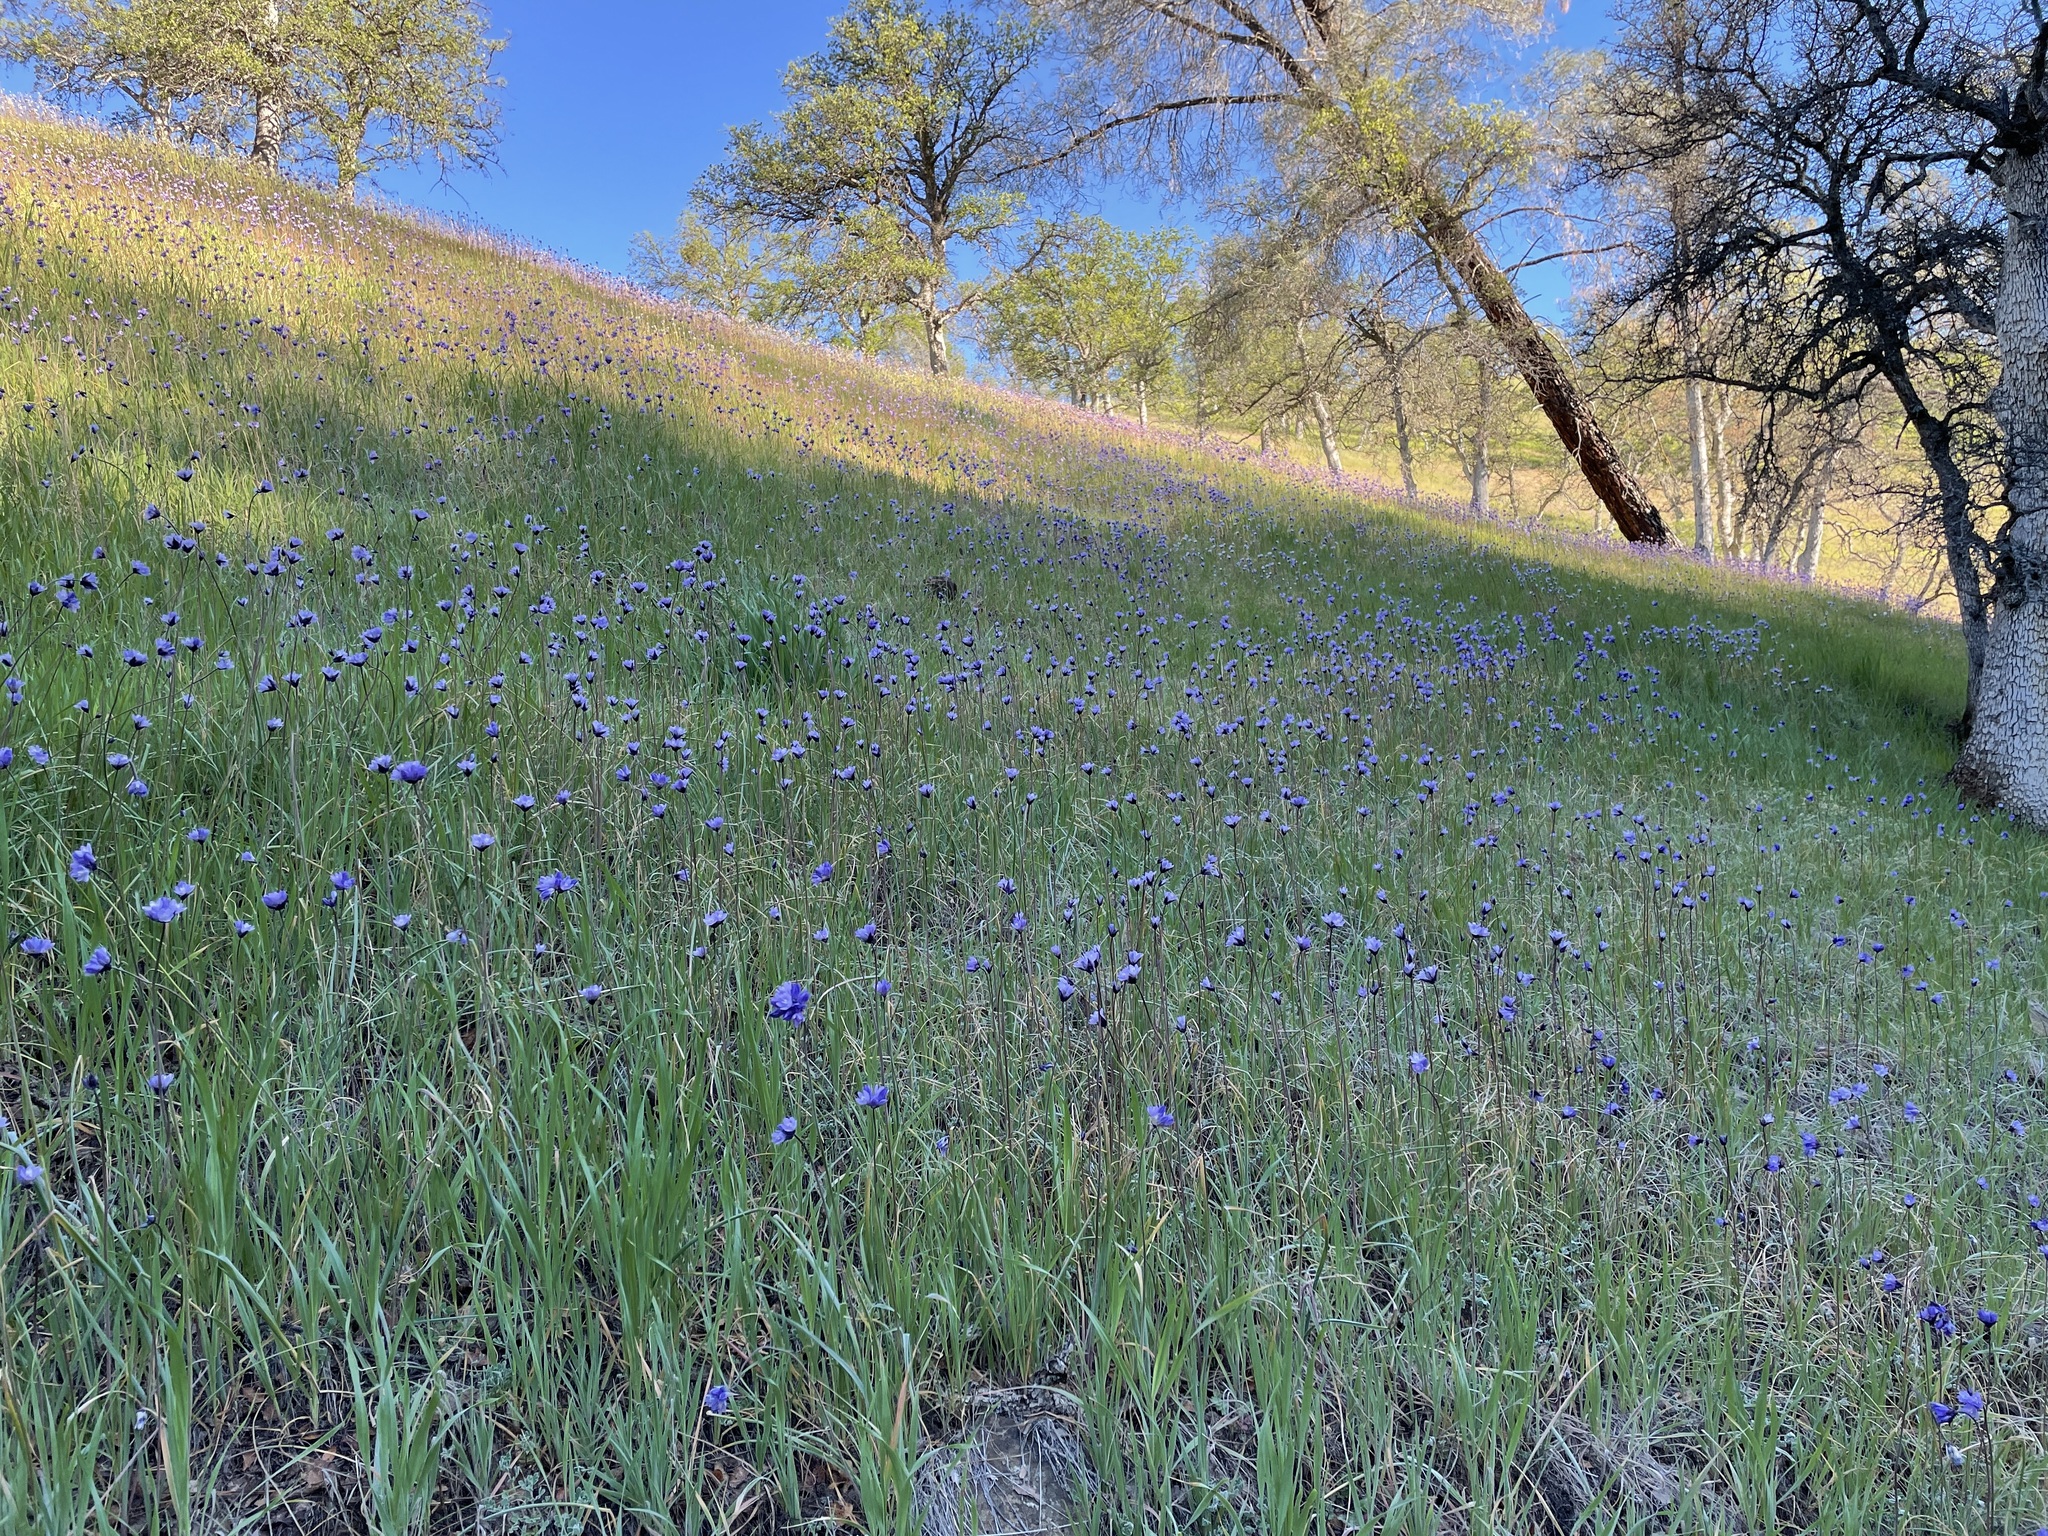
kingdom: Plantae
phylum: Tracheophyta
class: Liliopsida
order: Asparagales
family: Asparagaceae
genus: Dipterostemon
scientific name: Dipterostemon capitatus
